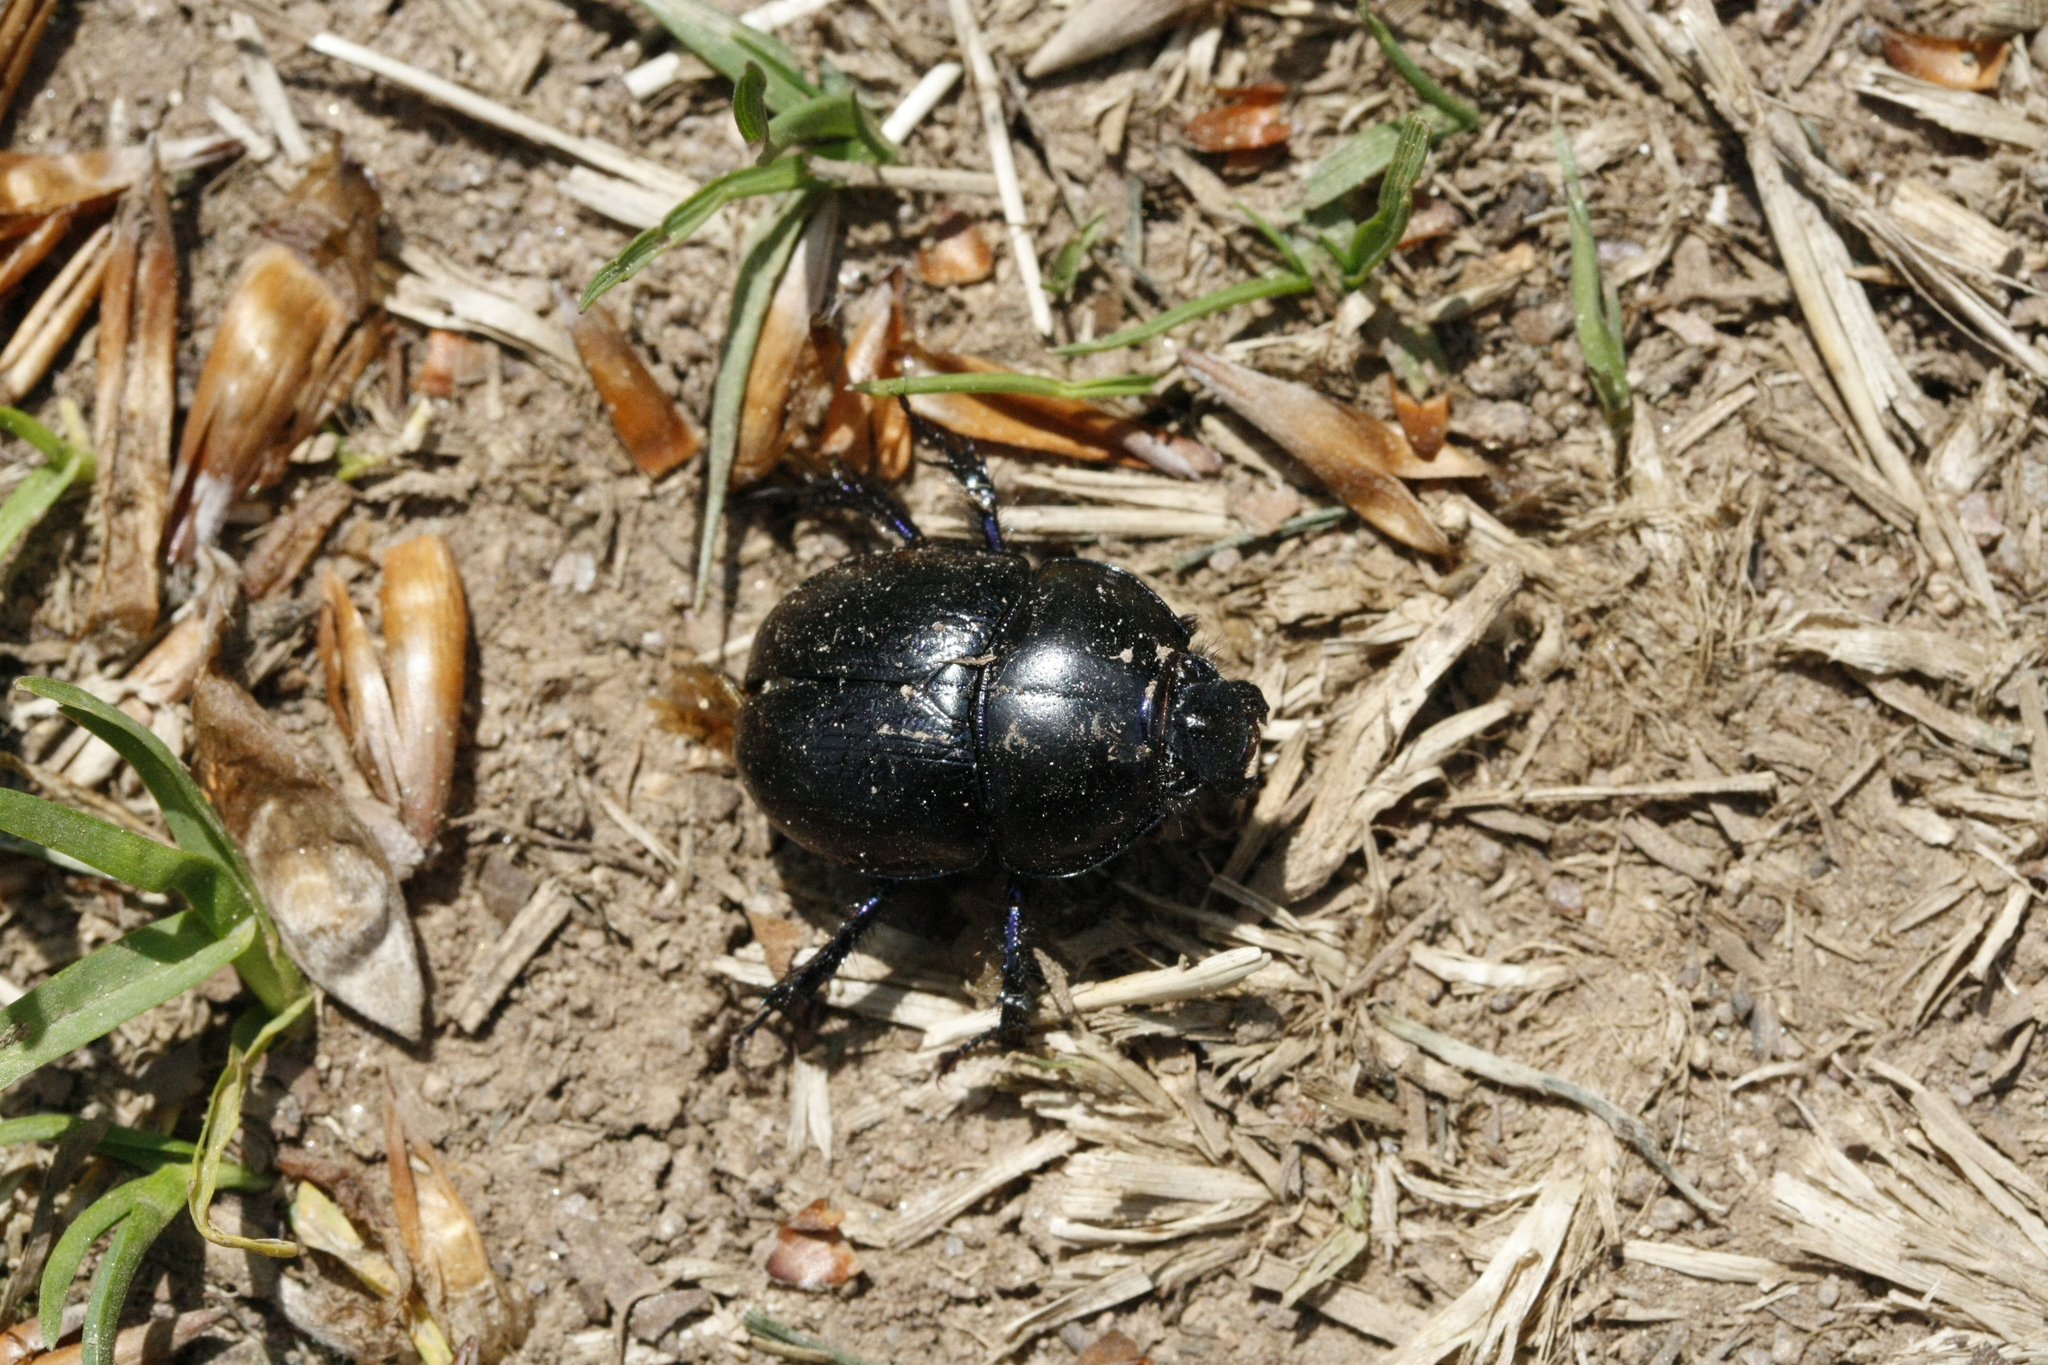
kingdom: Animalia
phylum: Arthropoda
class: Insecta
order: Coleoptera
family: Geotrupidae
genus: Anoplotrupes
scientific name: Anoplotrupes stercorosus
